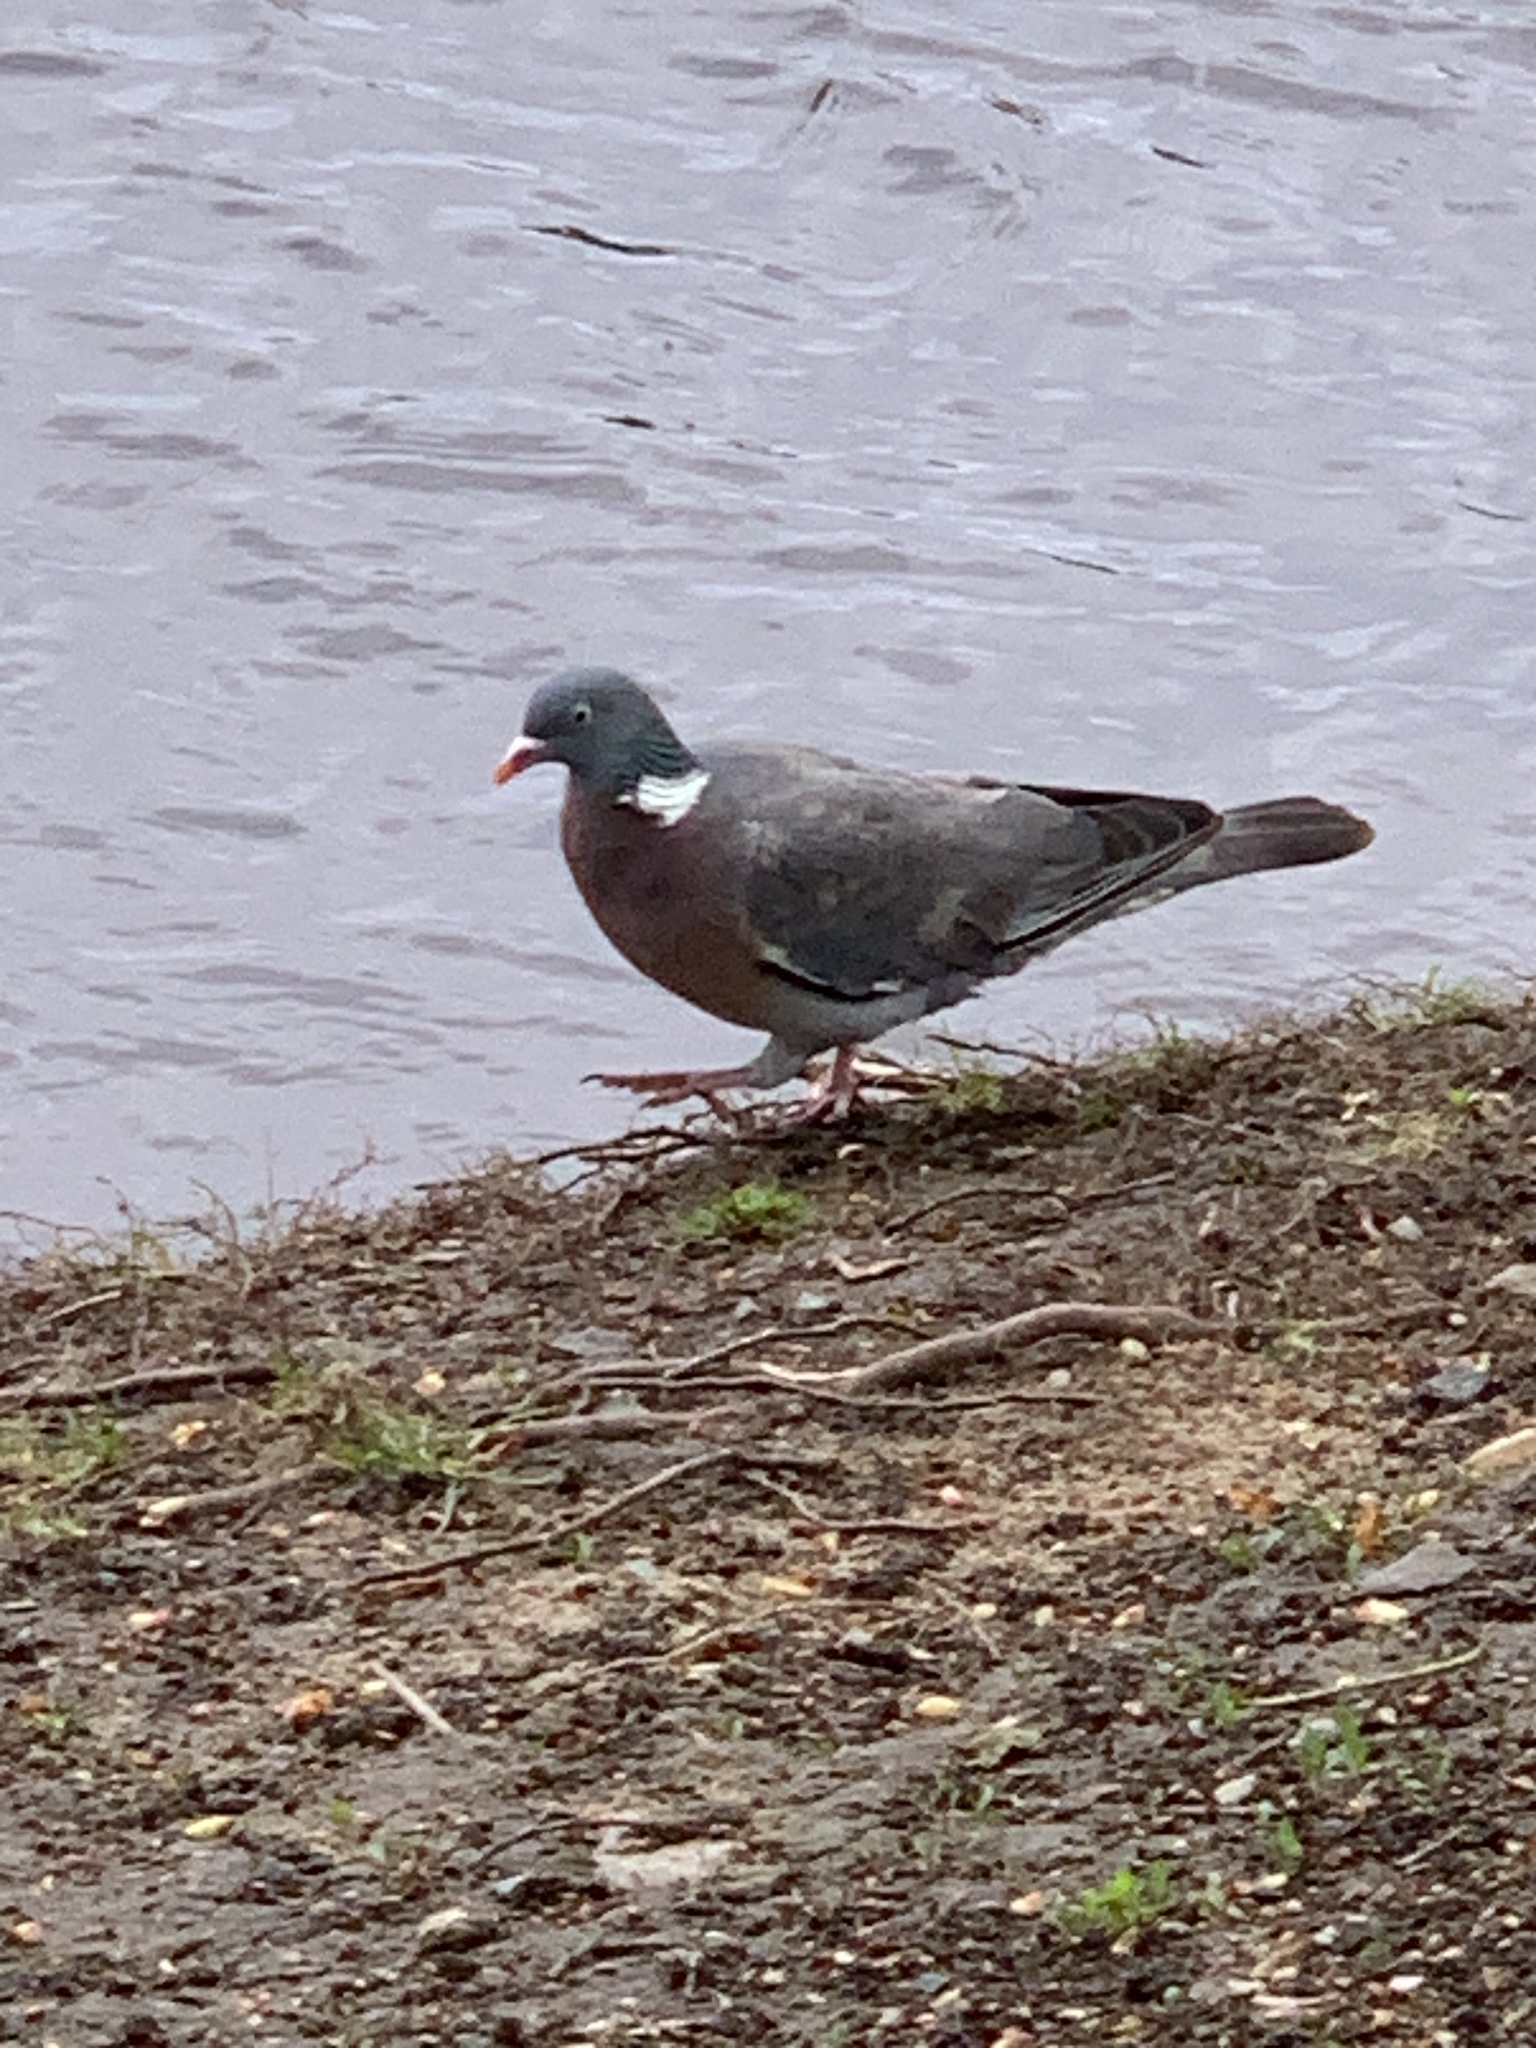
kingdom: Animalia
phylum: Chordata
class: Aves
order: Columbiformes
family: Columbidae
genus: Columba
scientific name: Columba palumbus
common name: Common wood pigeon
